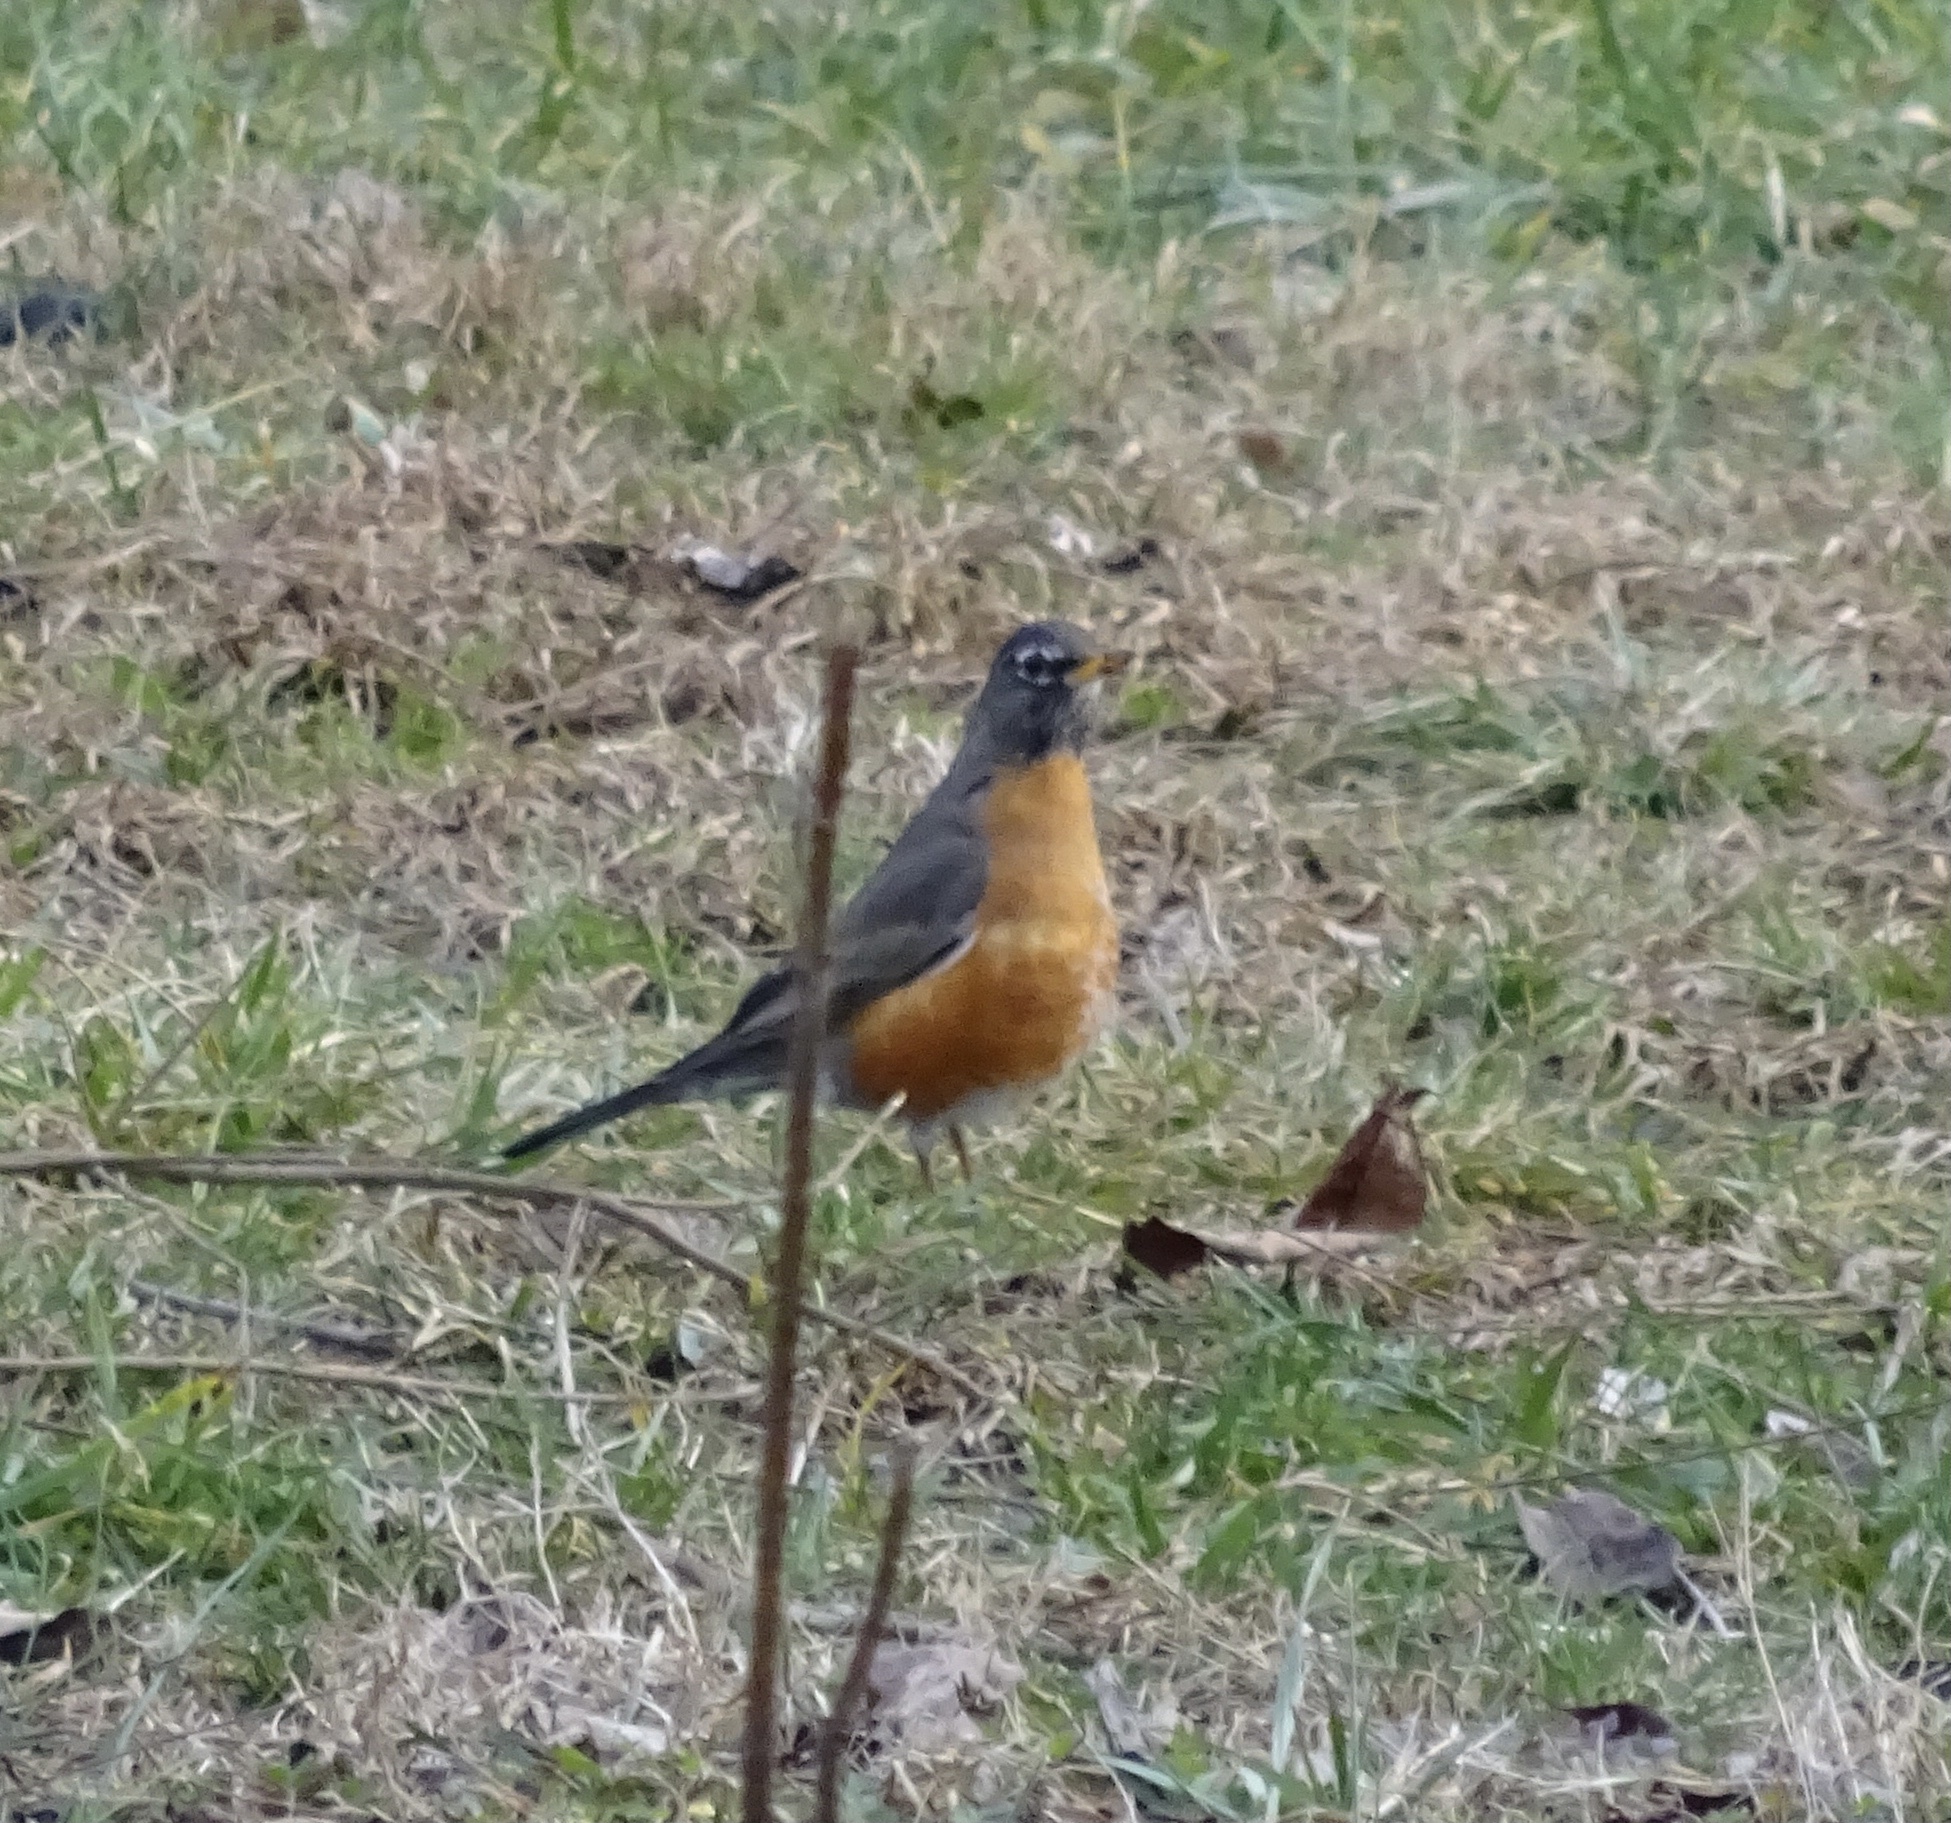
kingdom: Animalia
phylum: Chordata
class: Aves
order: Passeriformes
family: Turdidae
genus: Turdus
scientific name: Turdus migratorius
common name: American robin
